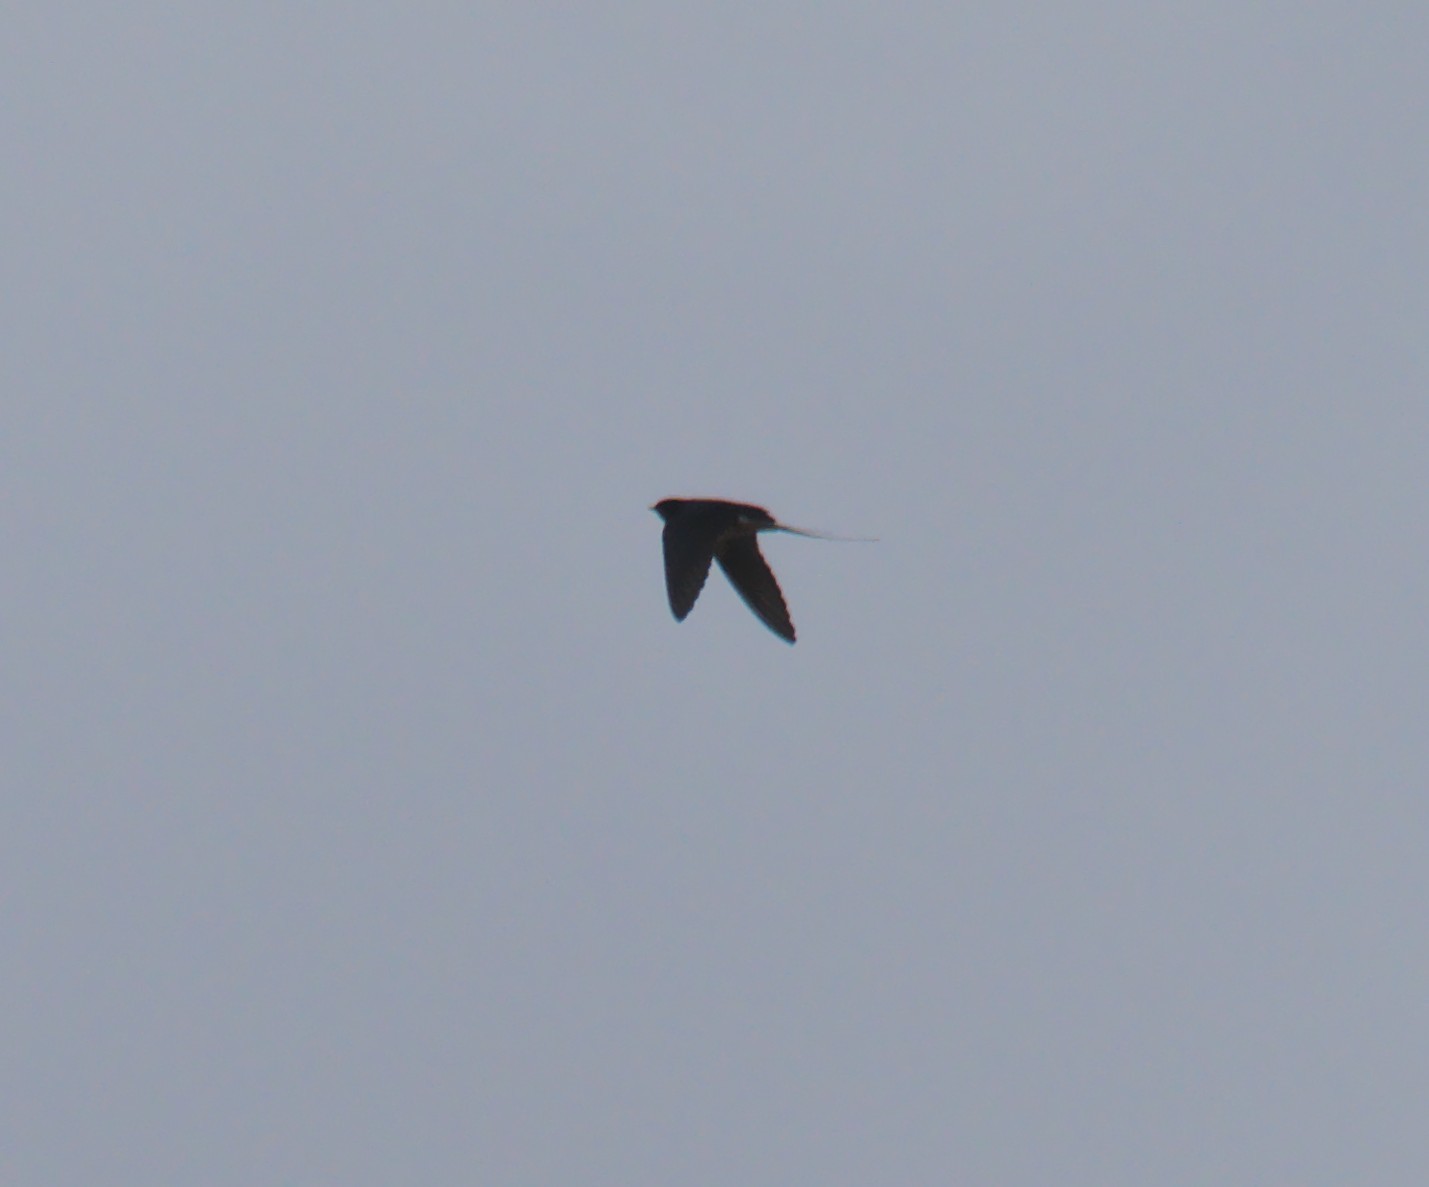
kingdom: Animalia
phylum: Chordata
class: Aves
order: Passeriformes
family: Hirundinidae
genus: Hirundo
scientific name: Hirundo rustica
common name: Barn swallow
